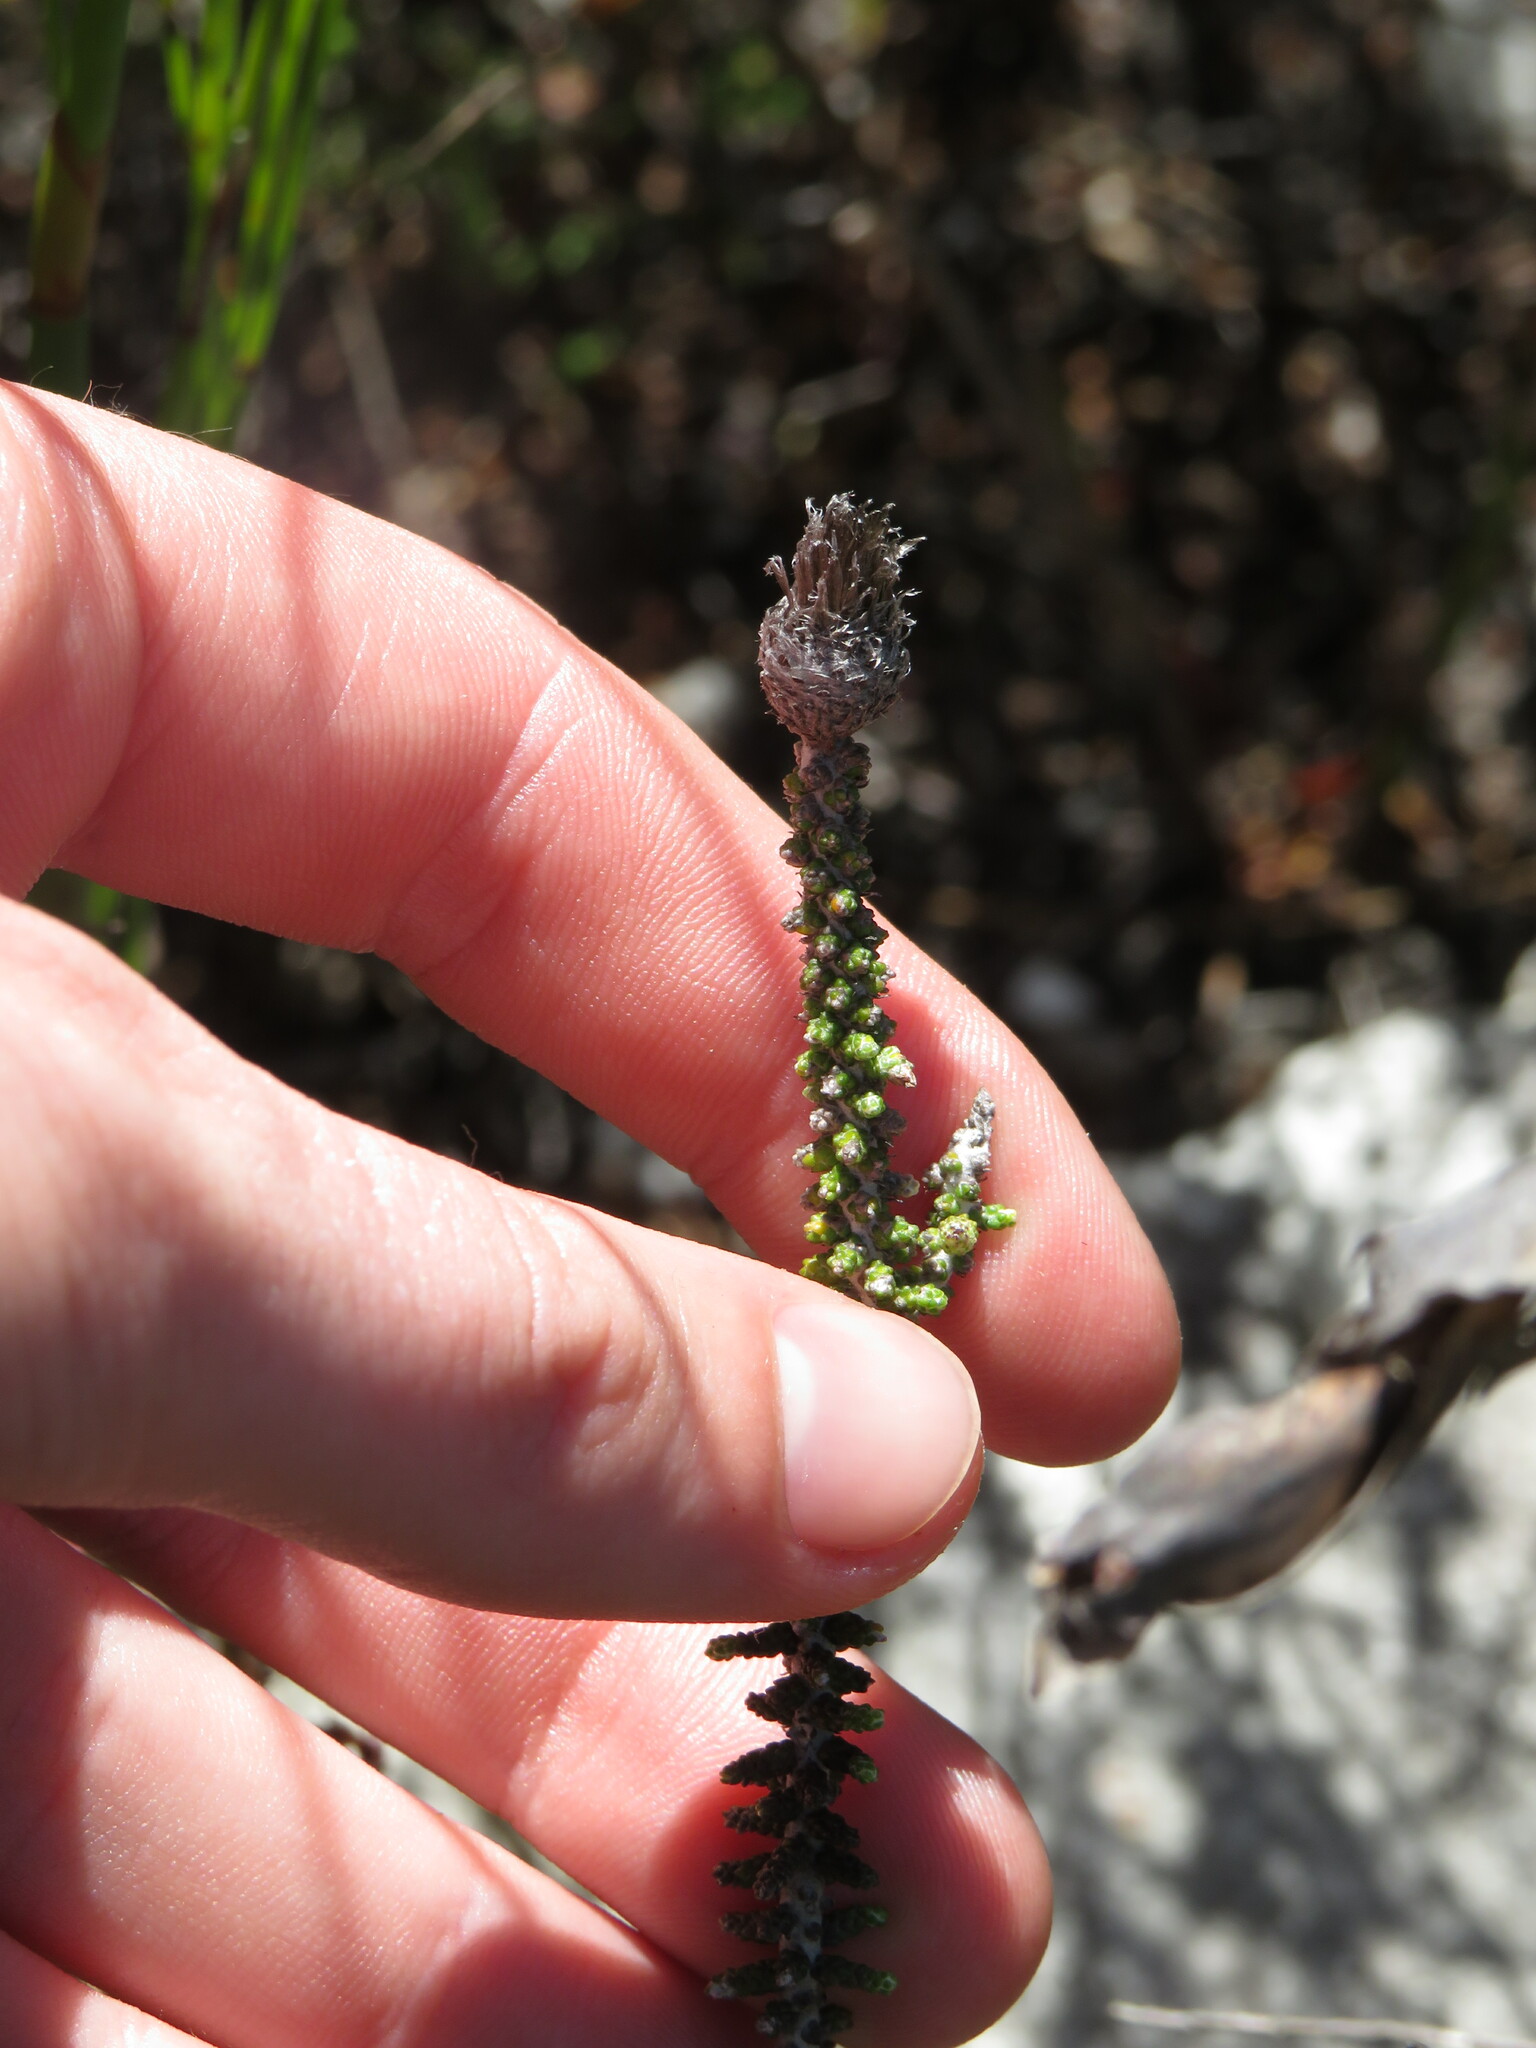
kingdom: Plantae
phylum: Tracheophyta
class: Magnoliopsida
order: Asterales
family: Asteraceae
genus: Phaenocoma
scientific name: Phaenocoma prolifera
